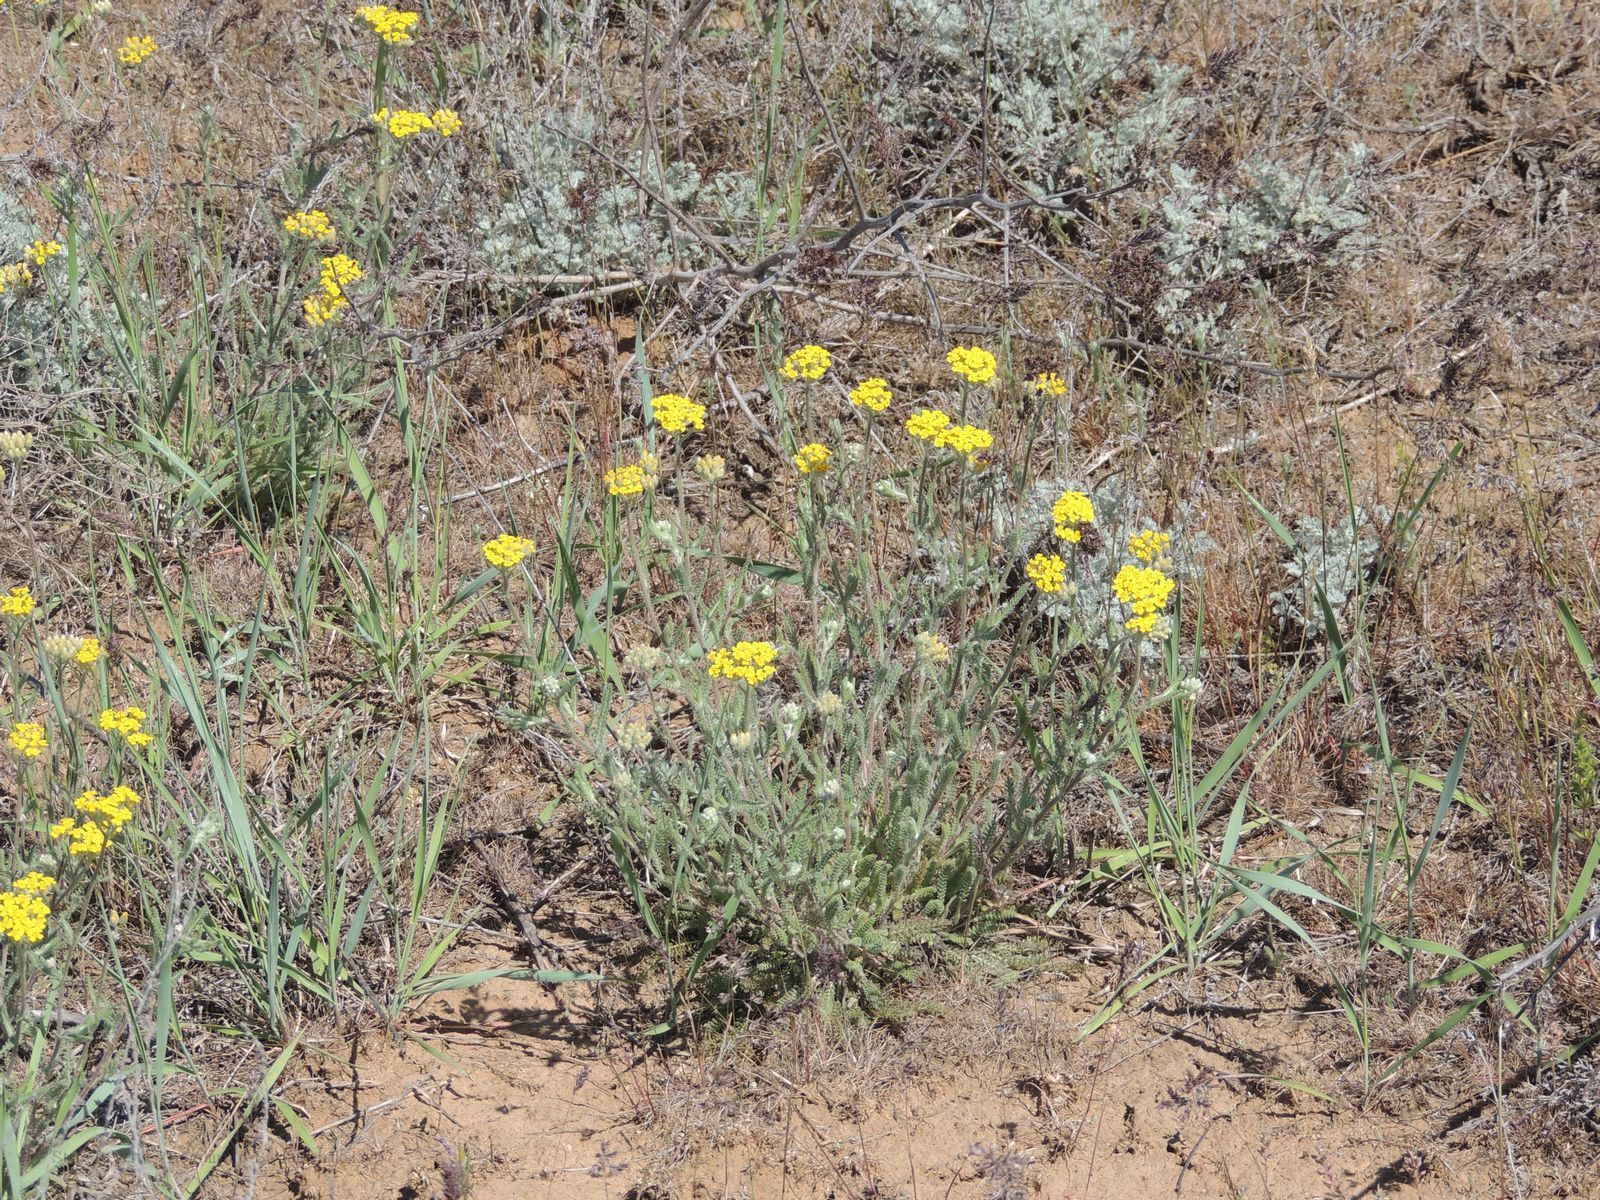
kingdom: Plantae
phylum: Tracheophyta
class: Magnoliopsida
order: Asterales
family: Asteraceae
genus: Achillea
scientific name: Achillea micrantha
